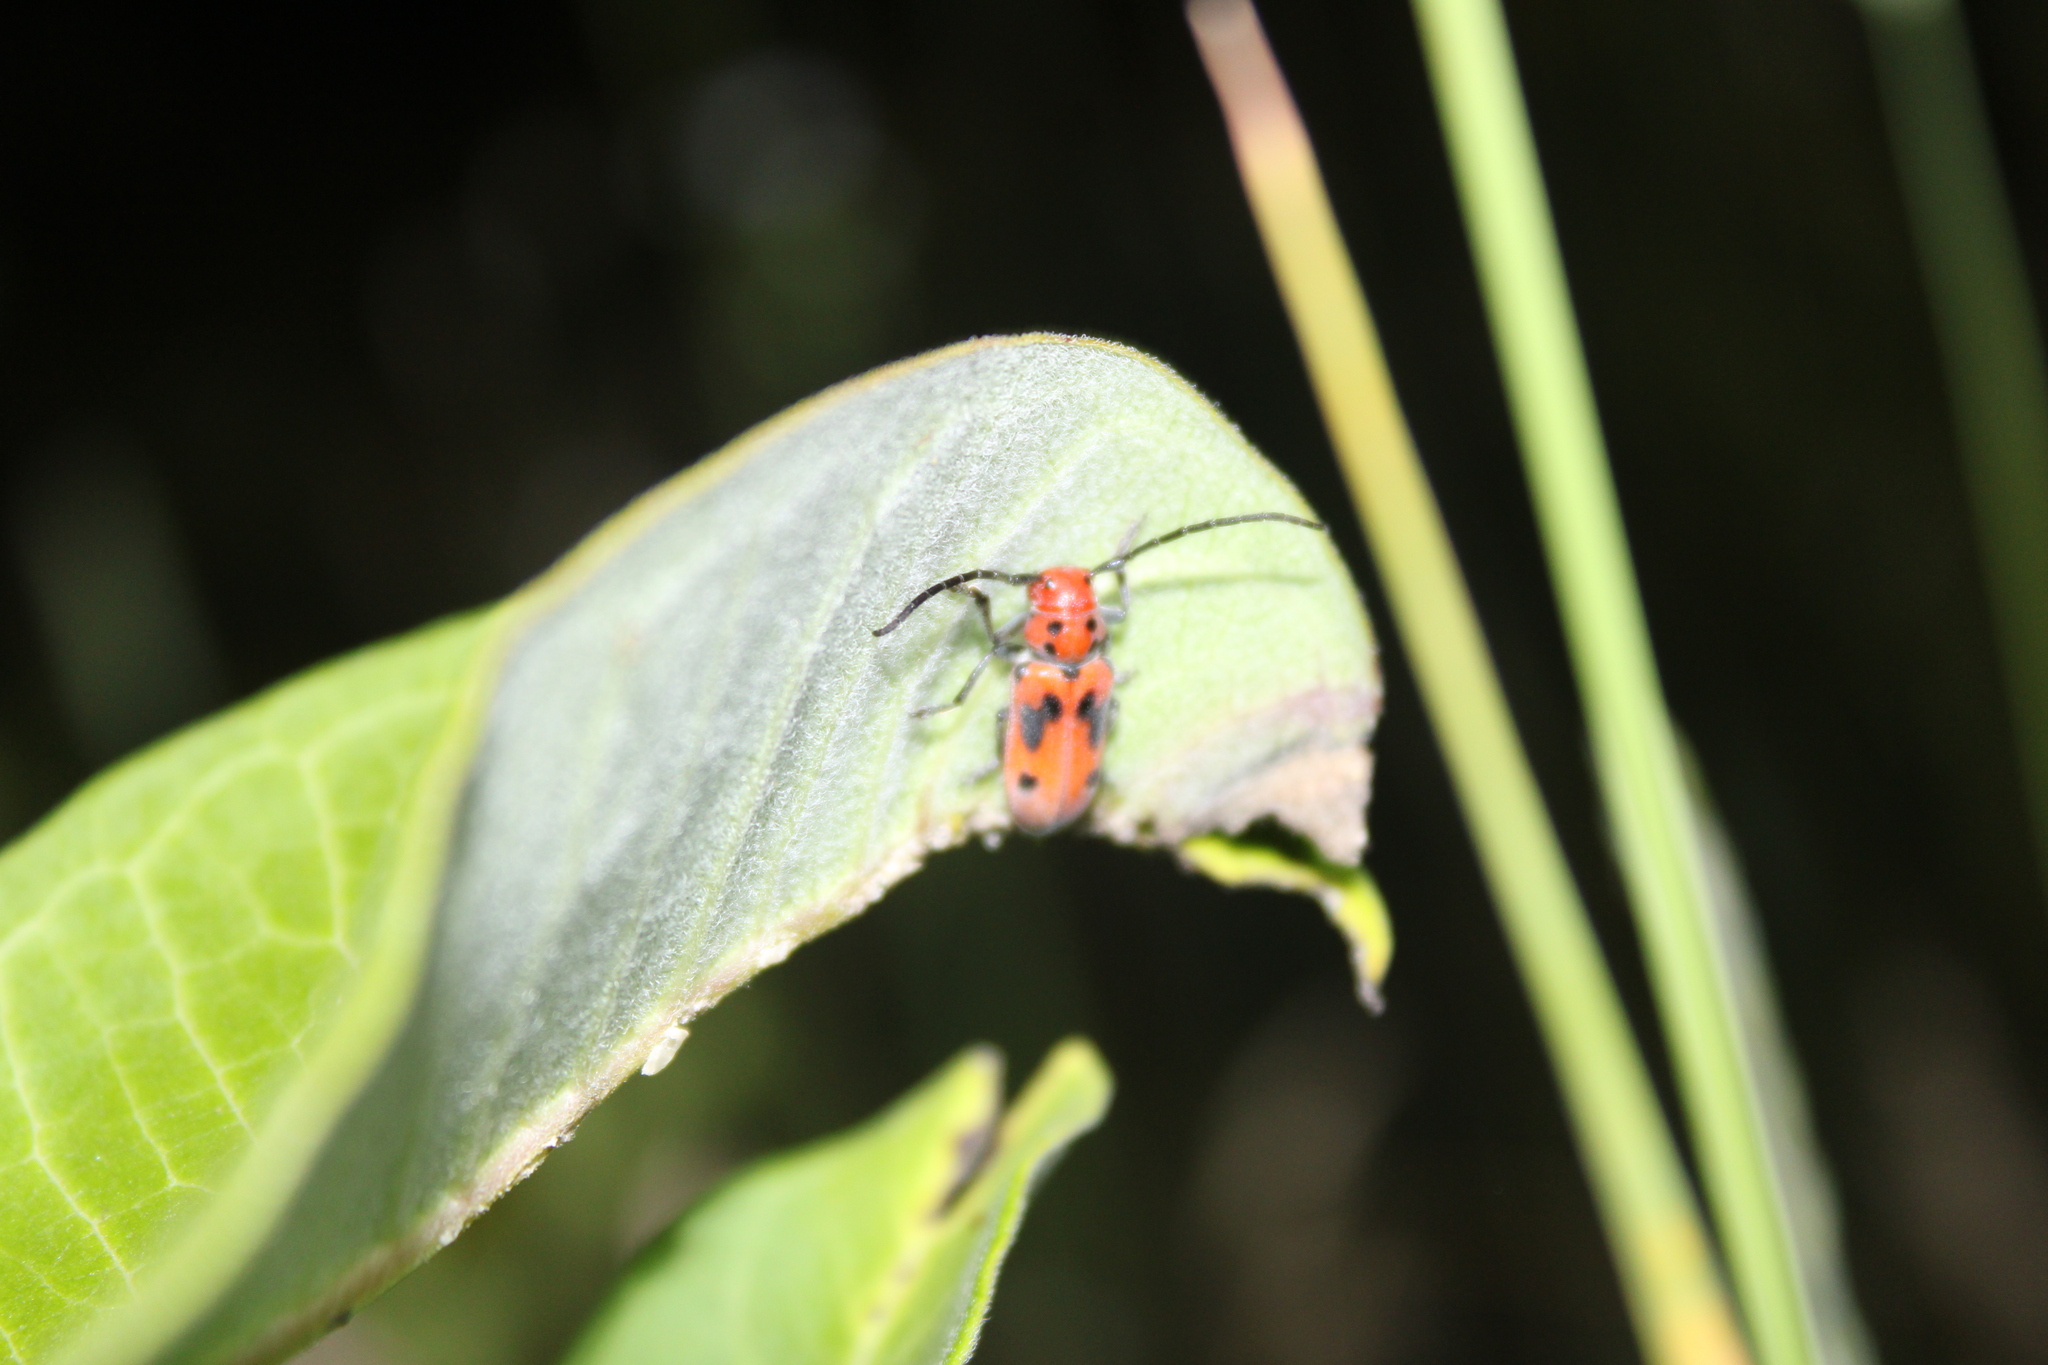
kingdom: Animalia
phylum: Arthropoda
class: Insecta
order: Coleoptera
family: Cerambycidae
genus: Tetraopes
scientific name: Tetraopes tetrophthalmus
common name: Red milkweed beetle
